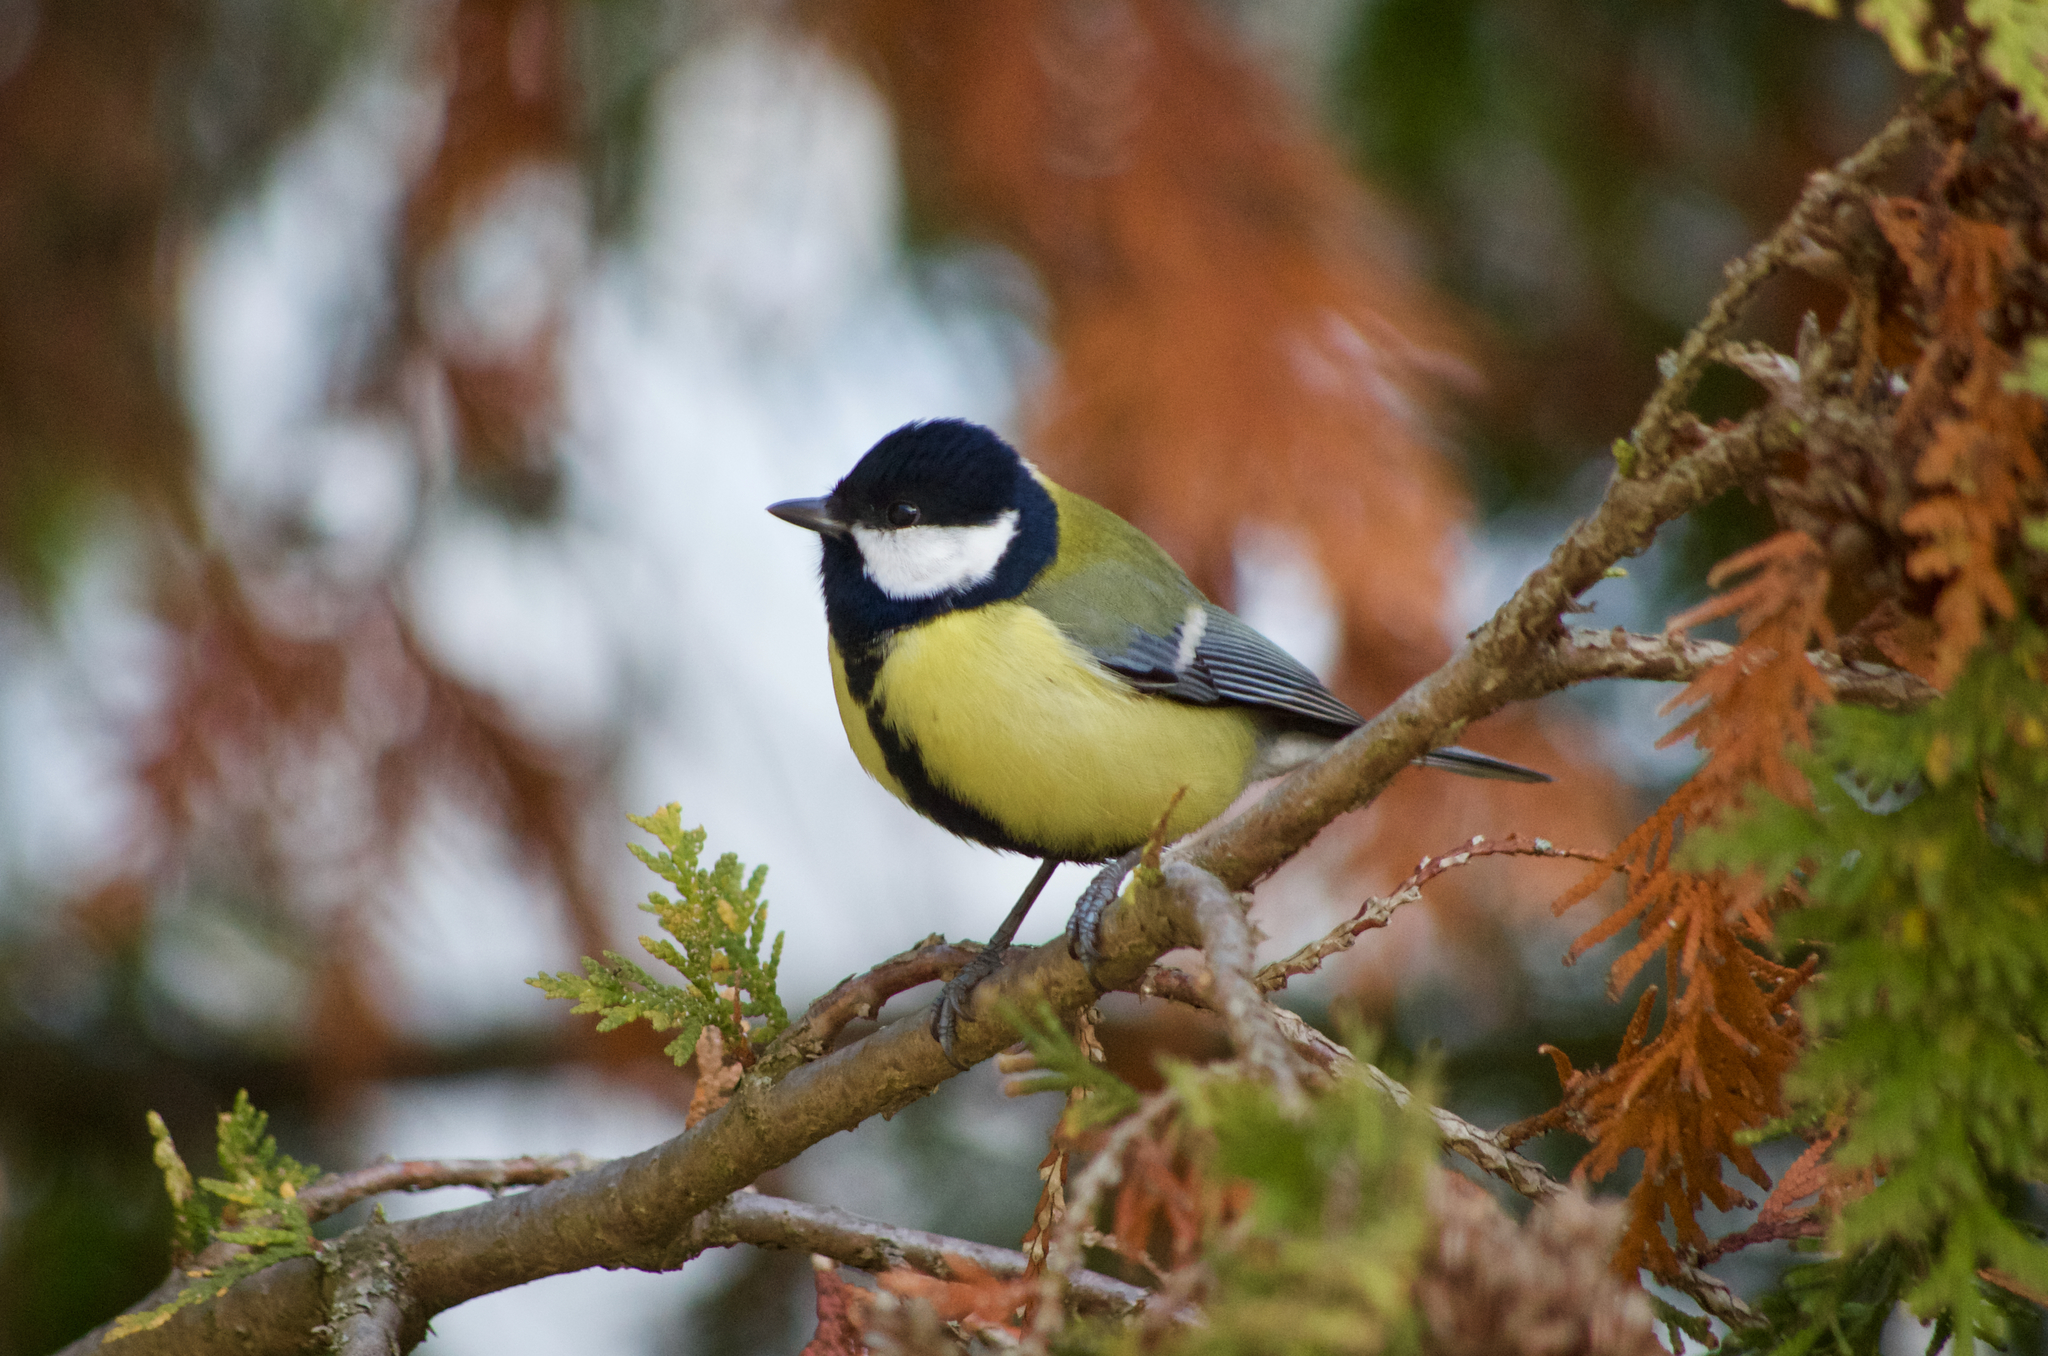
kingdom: Animalia
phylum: Chordata
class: Aves
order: Passeriformes
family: Paridae
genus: Parus
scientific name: Parus major
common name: Great tit
